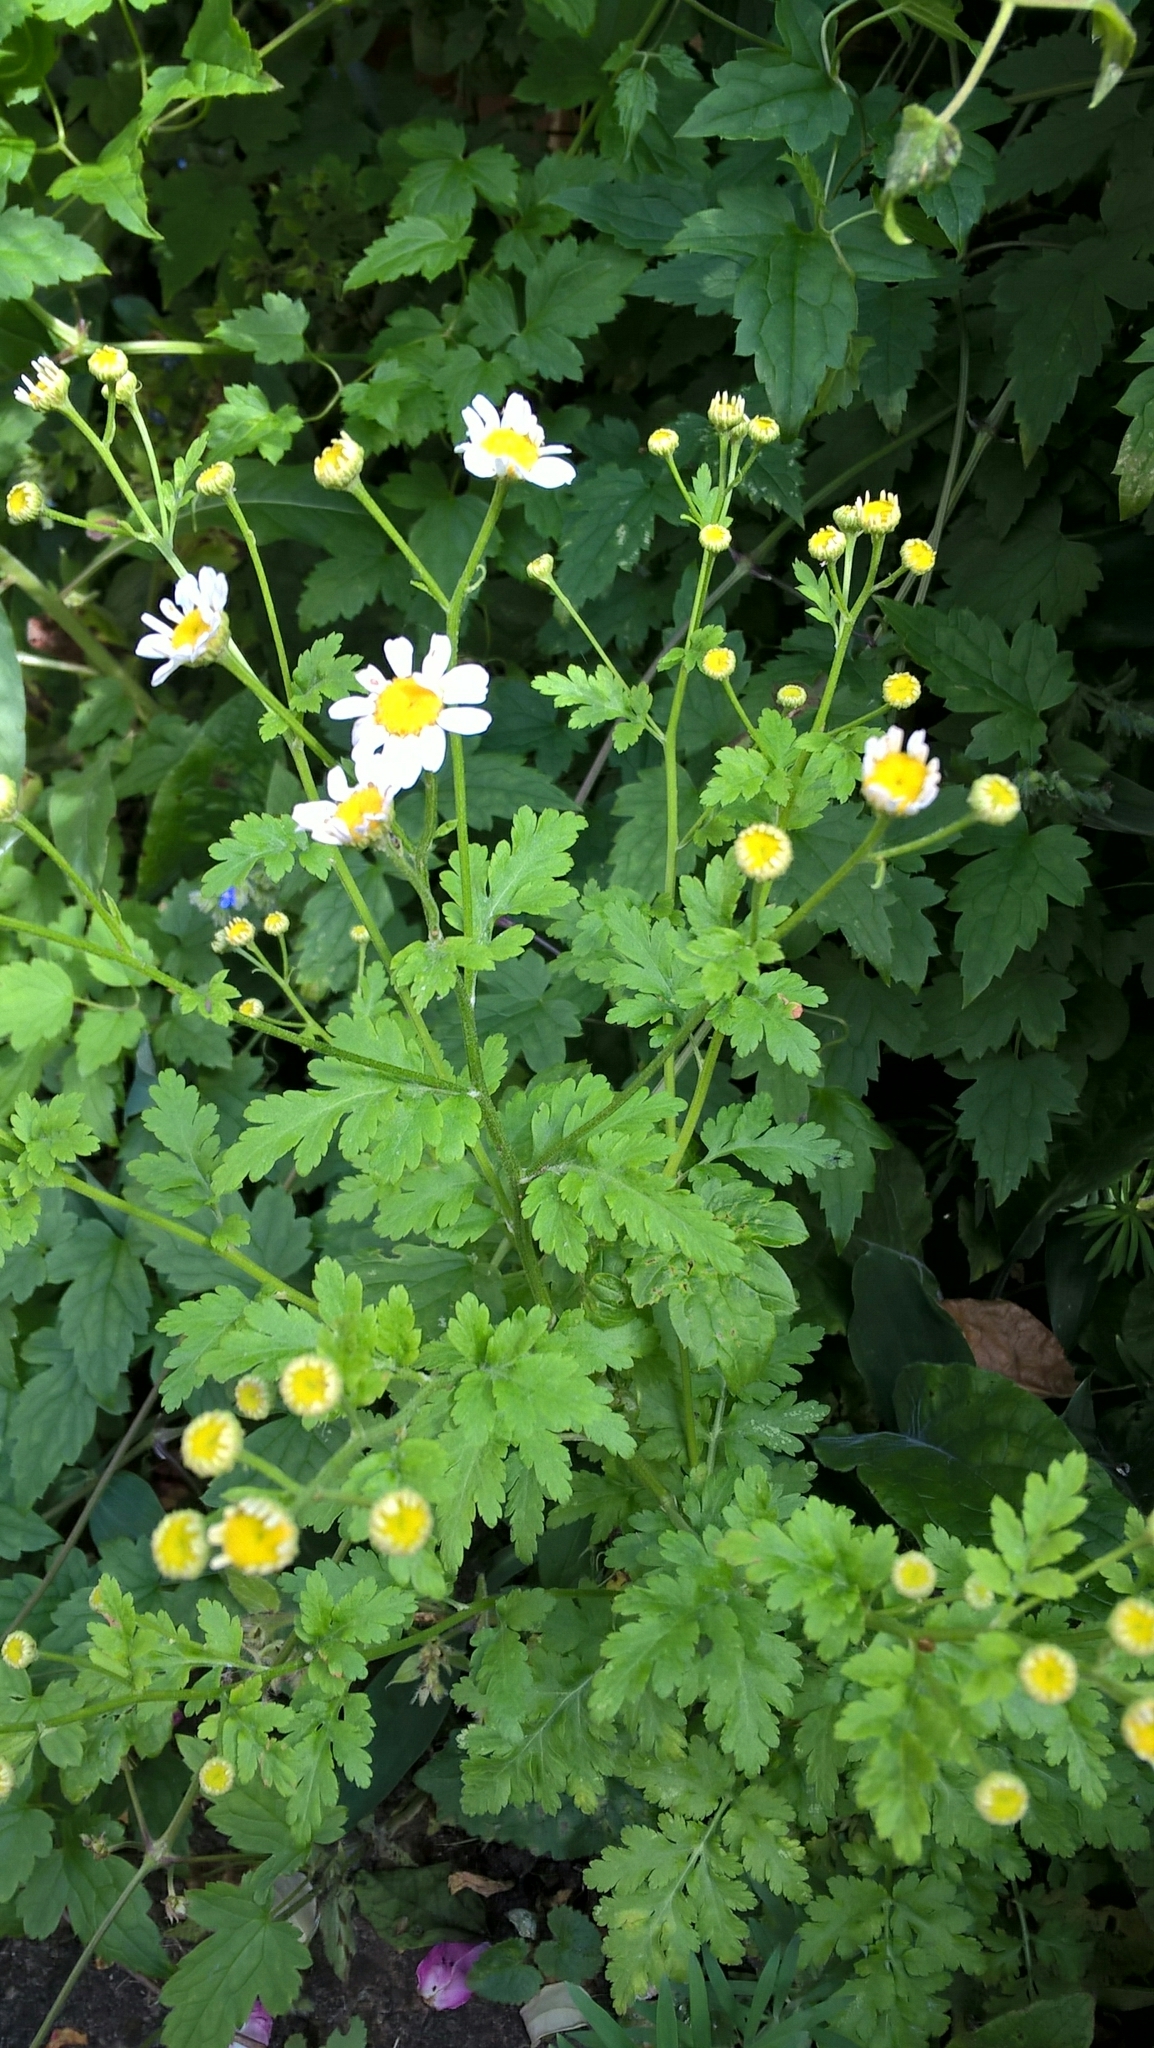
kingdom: Plantae
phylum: Tracheophyta
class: Magnoliopsida
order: Asterales
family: Asteraceae
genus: Tanacetum
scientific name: Tanacetum parthenium
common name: Feverfew
